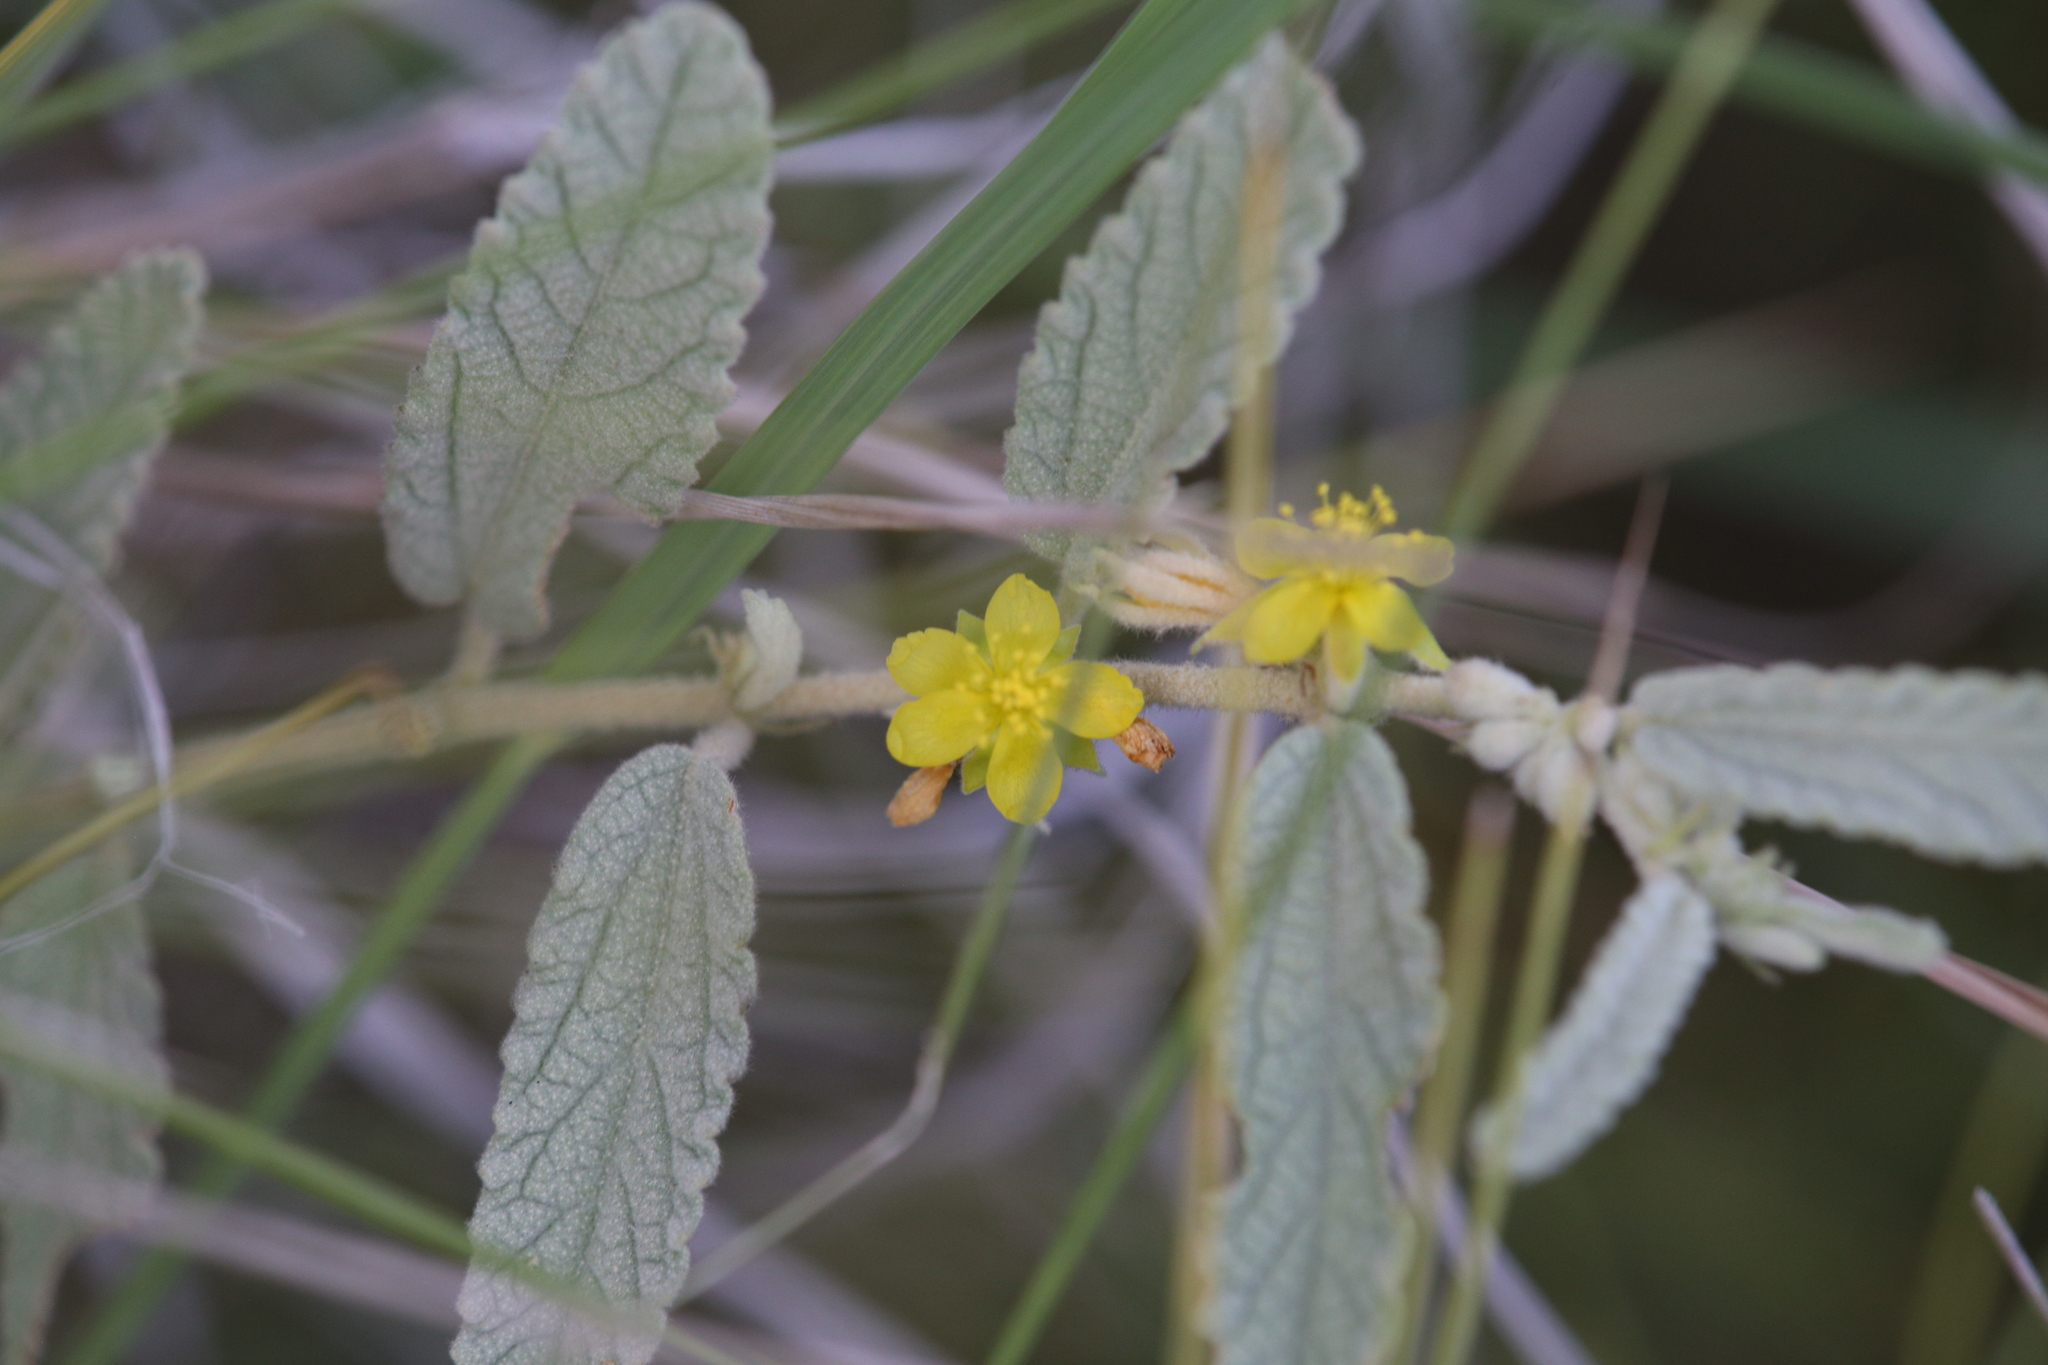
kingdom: Plantae
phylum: Tracheophyta
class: Magnoliopsida
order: Malvales
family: Malvaceae
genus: Corchorus
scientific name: Corchorus pumilio
